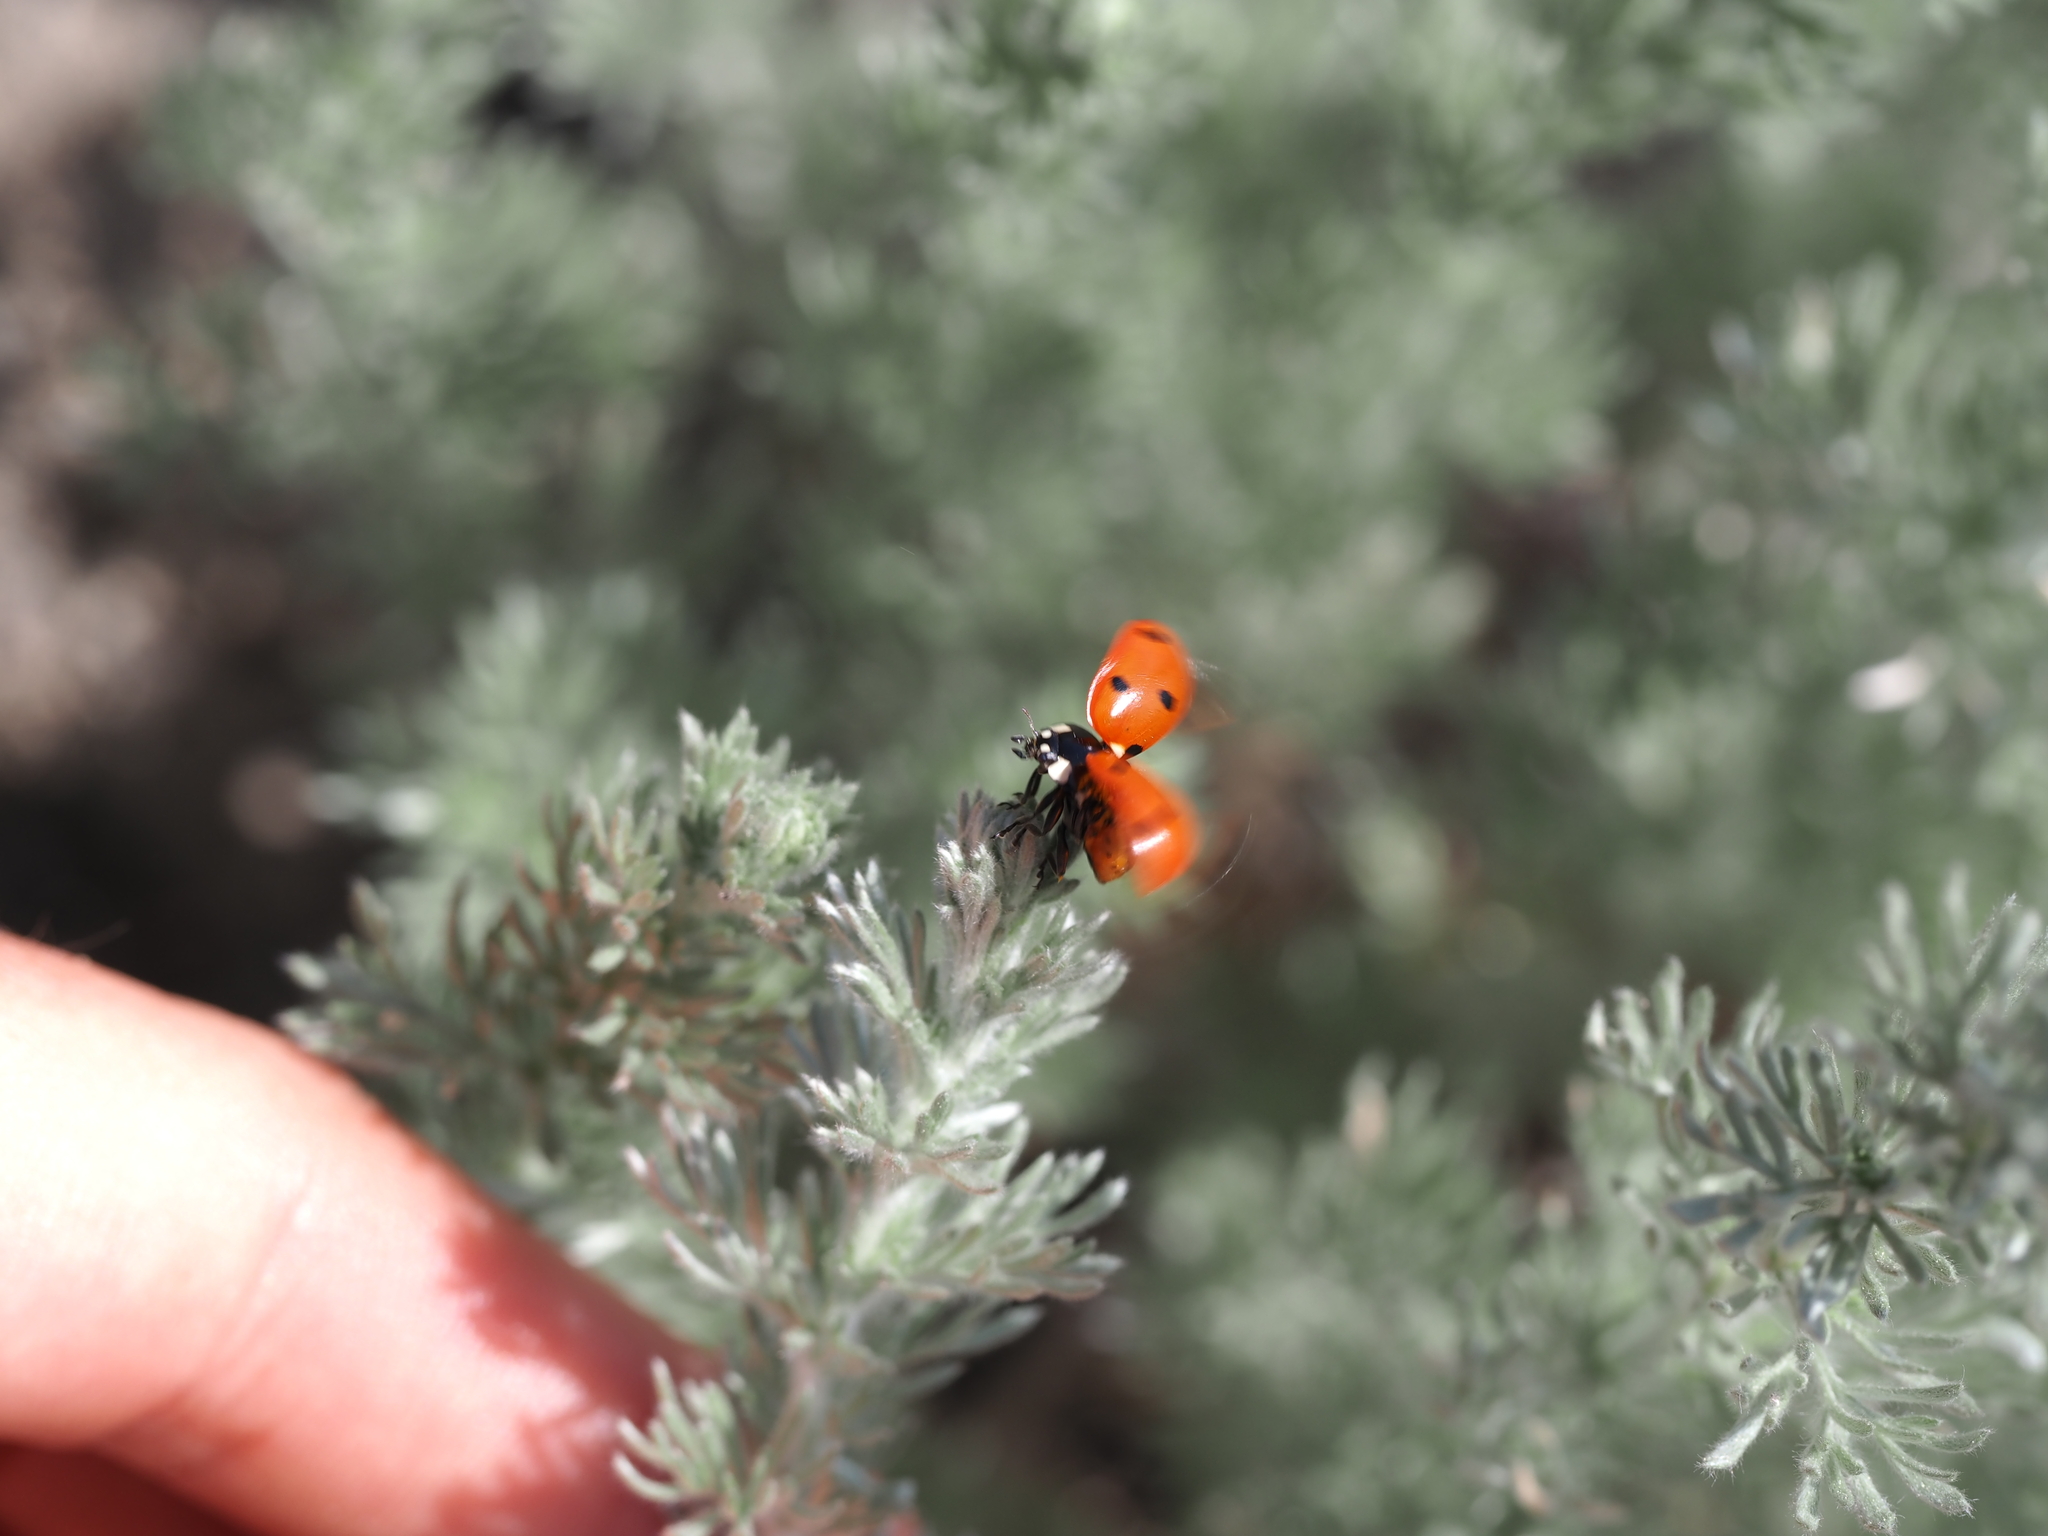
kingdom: Animalia
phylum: Arthropoda
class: Insecta
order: Coleoptera
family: Coccinellidae
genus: Coccinella
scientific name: Coccinella septempunctata
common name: Sevenspotted lady beetle
